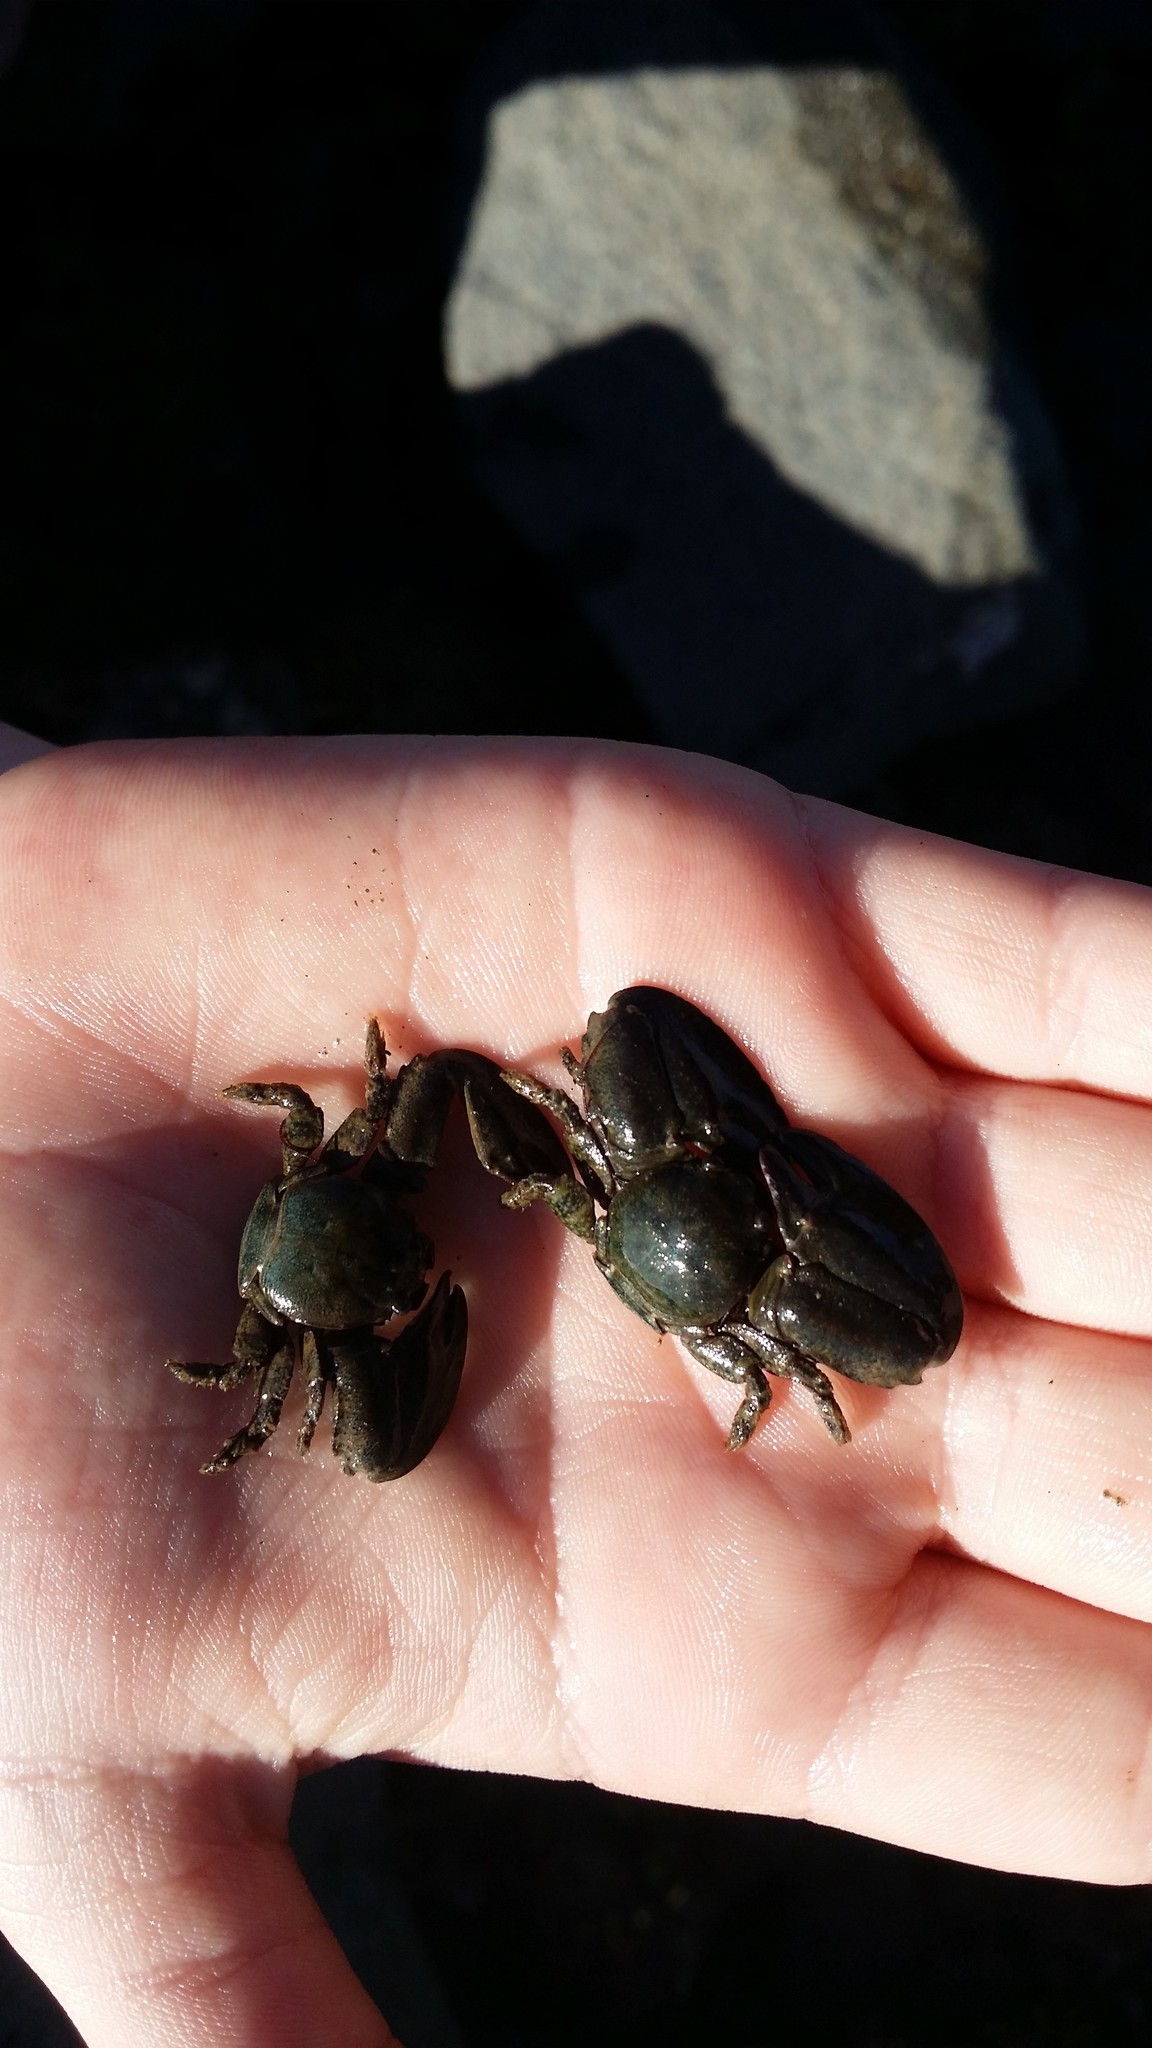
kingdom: Animalia
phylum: Arthropoda
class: Malacostraca
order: Decapoda
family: Porcellanidae
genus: Petrolisthes
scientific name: Petrolisthes elongatus
